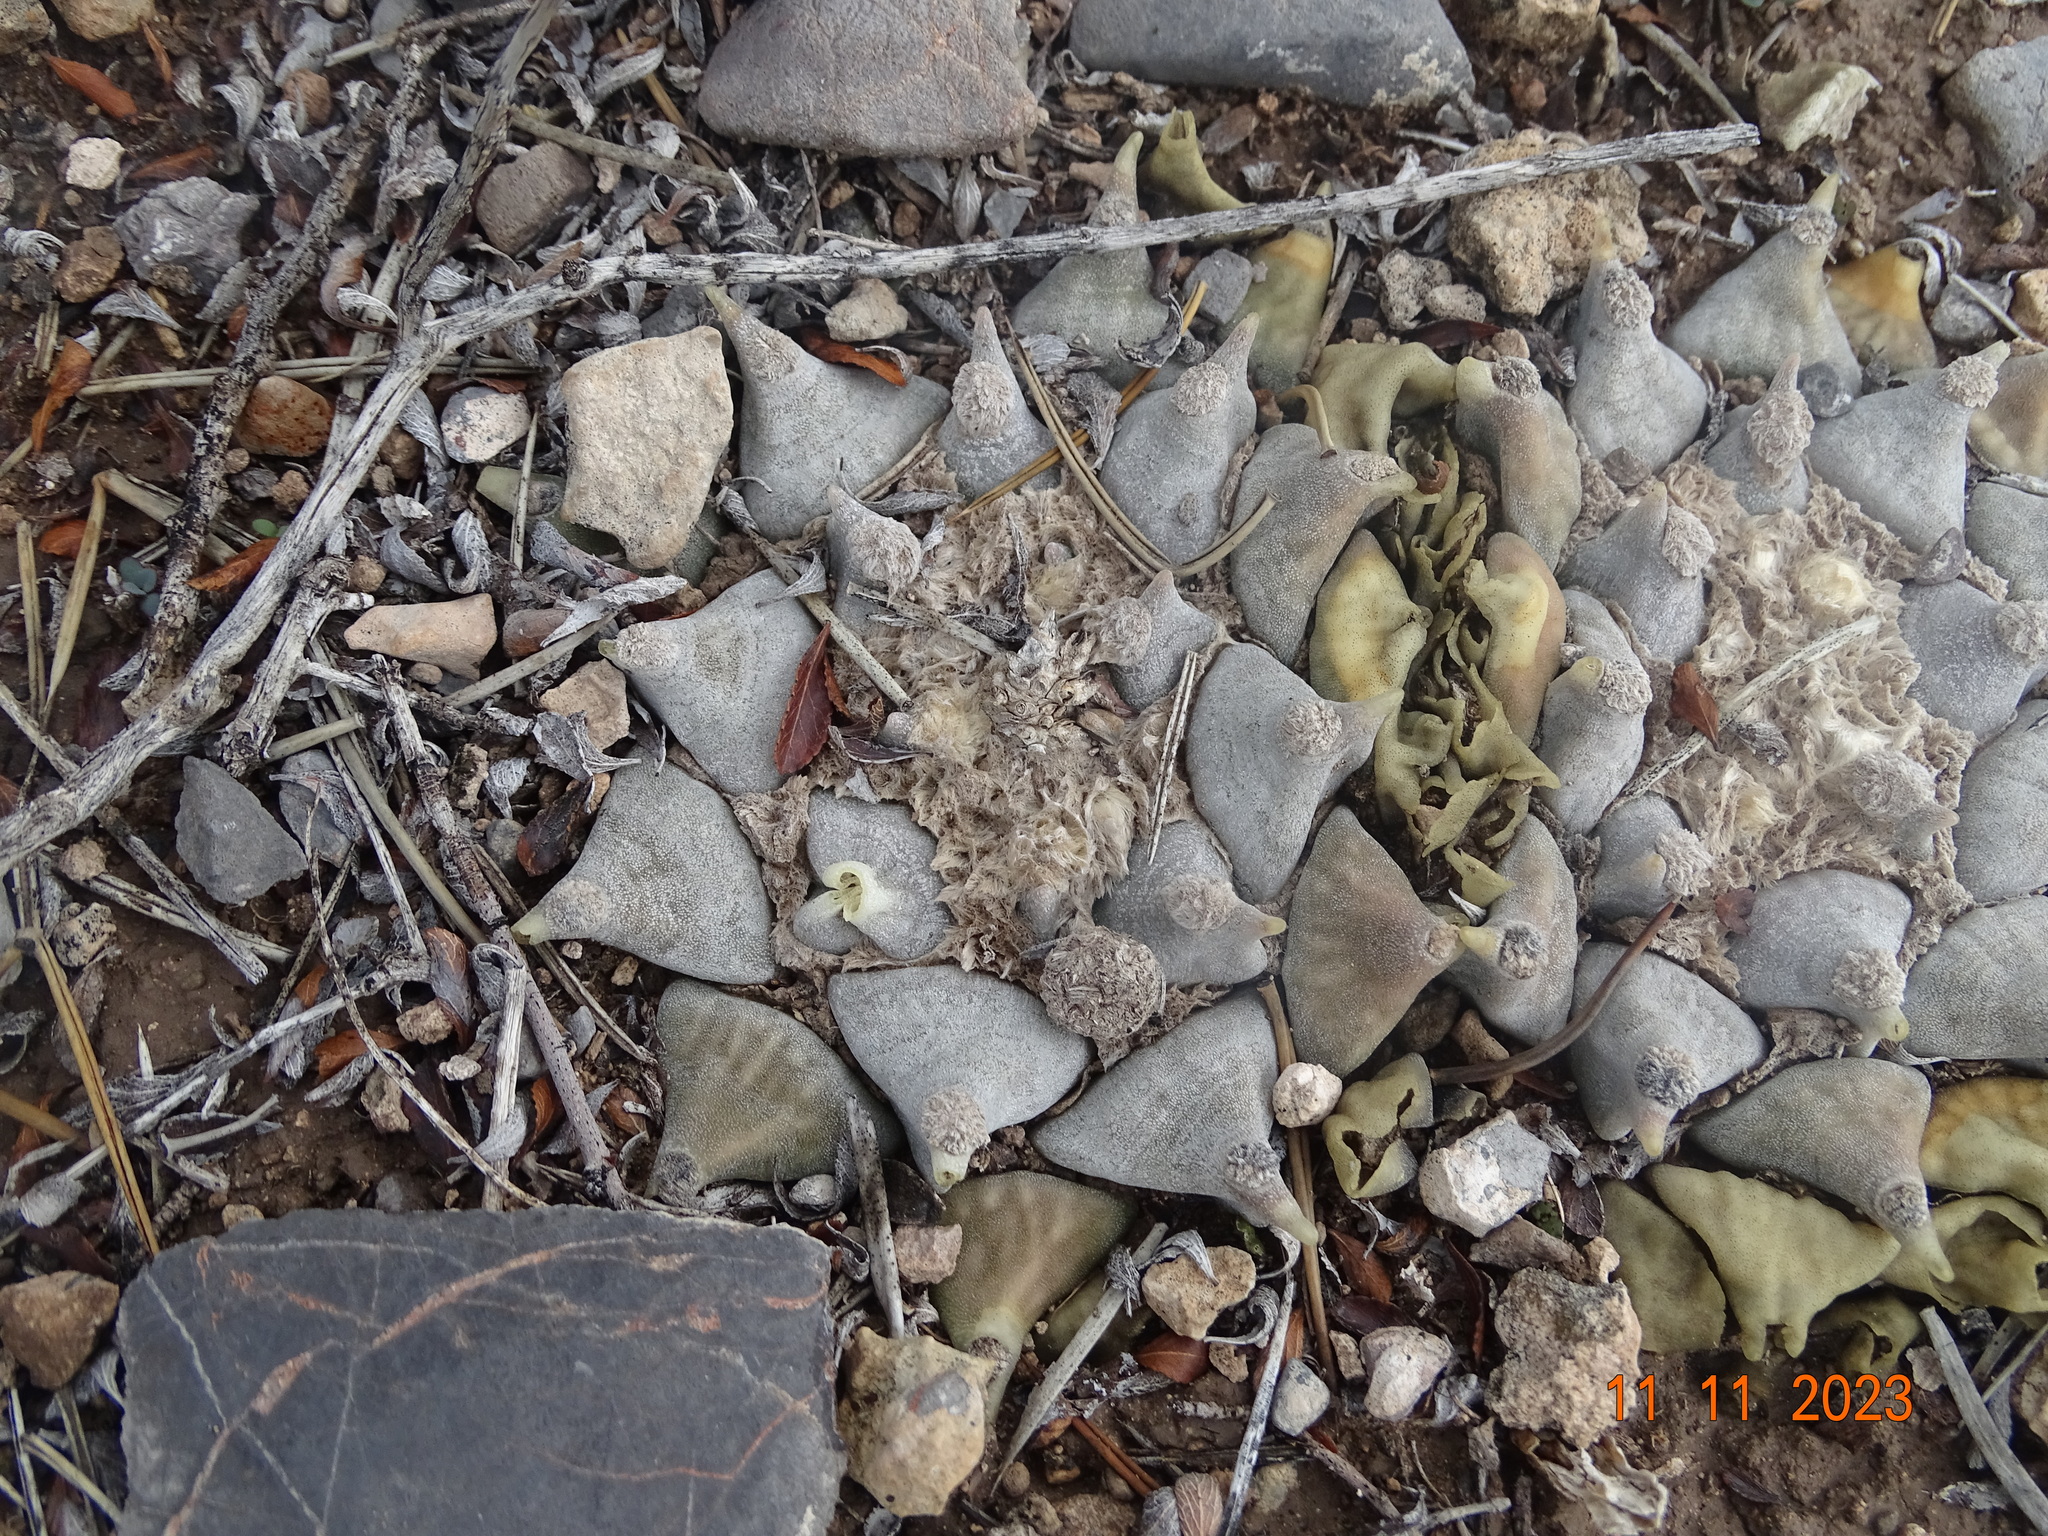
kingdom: Plantae
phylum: Tracheophyta
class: Magnoliopsida
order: Caryophyllales
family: Cactaceae
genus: Ariocarpus
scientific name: Ariocarpus retusus
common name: Seven stars
